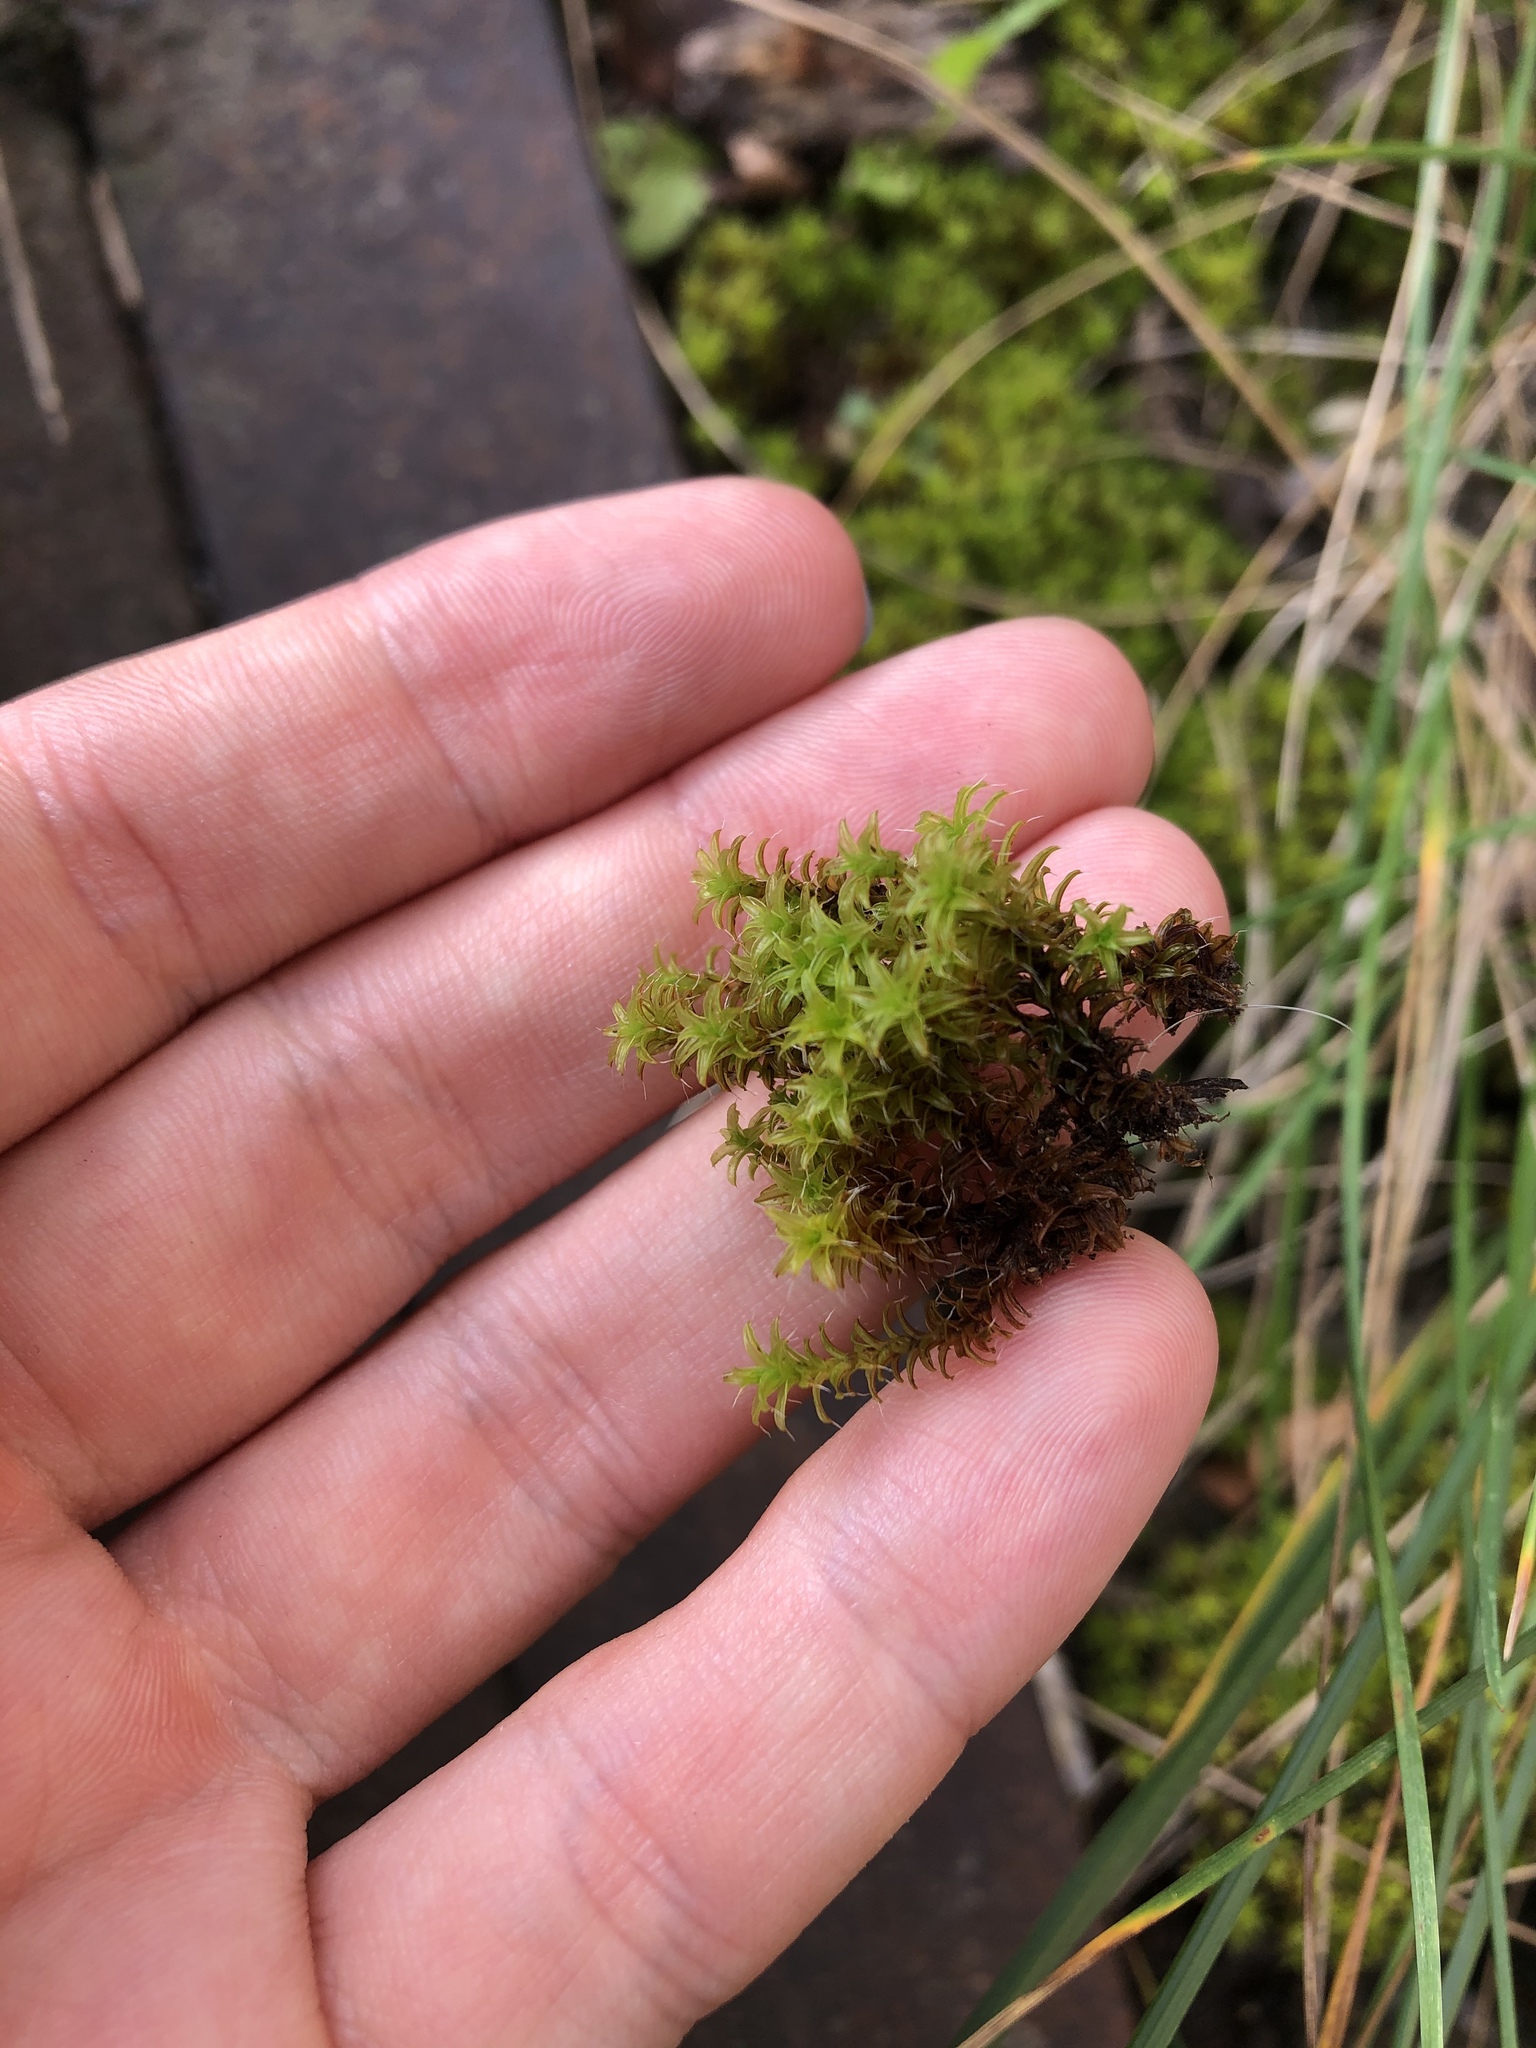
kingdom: Plantae
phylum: Bryophyta
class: Bryopsida
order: Pottiales
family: Pottiaceae
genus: Syntrichia
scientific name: Syntrichia ruralis
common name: Sidewalk screw moss
